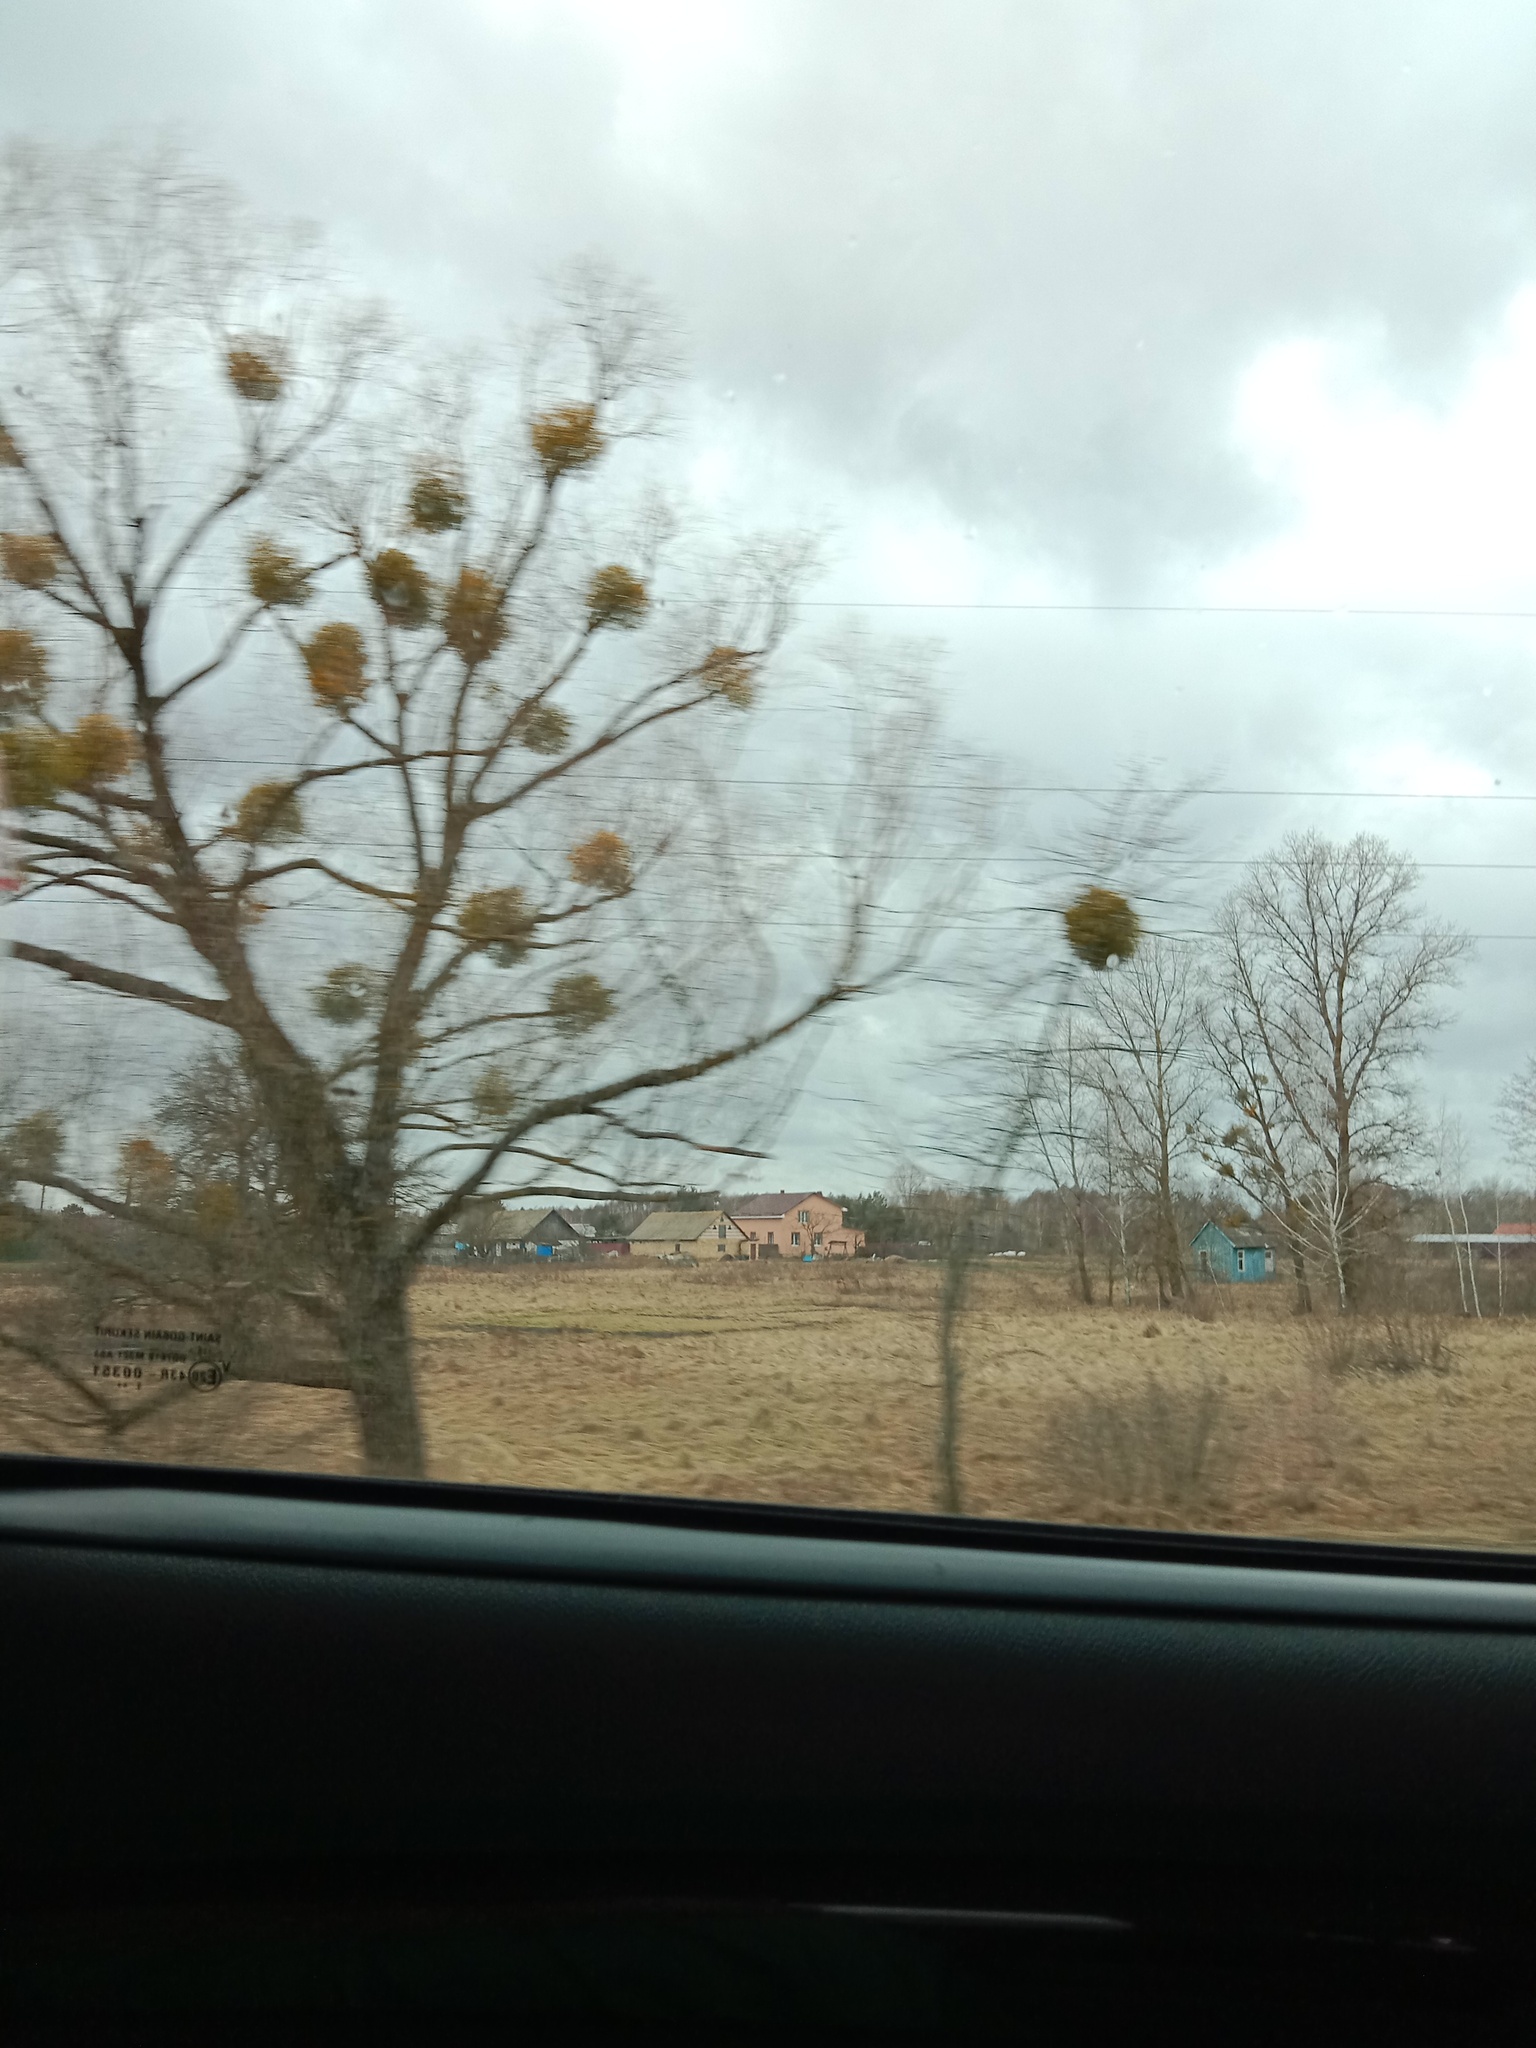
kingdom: Plantae
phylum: Tracheophyta
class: Magnoliopsida
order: Santalales
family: Viscaceae
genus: Viscum
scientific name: Viscum album
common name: Mistletoe
